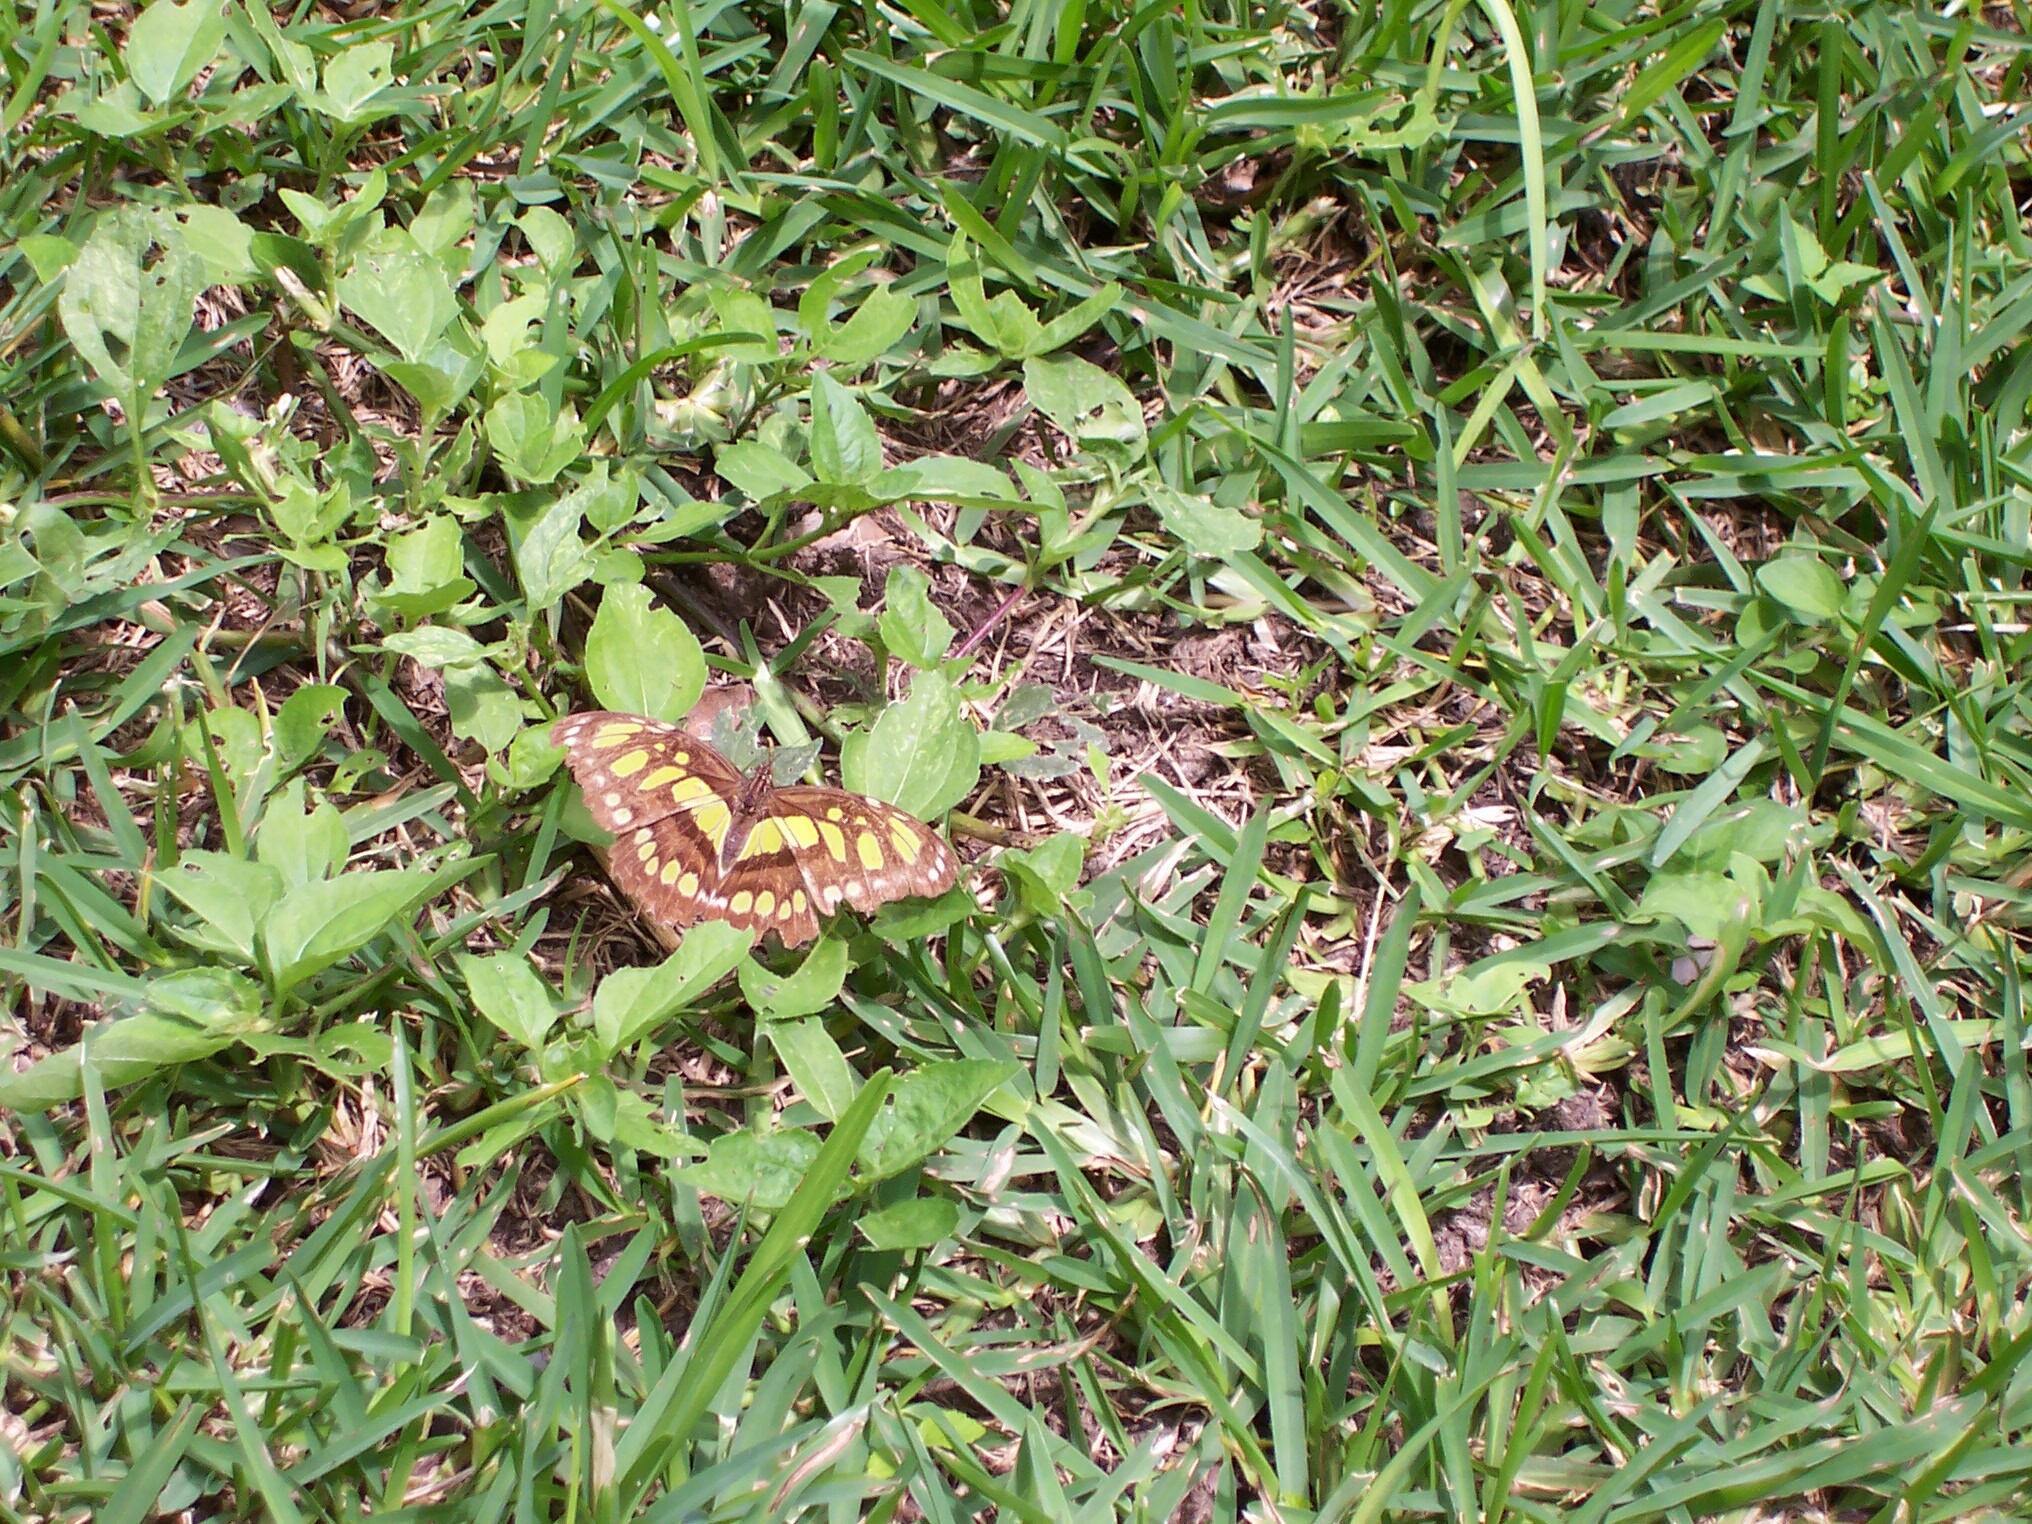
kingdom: Animalia
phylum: Arthropoda
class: Insecta
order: Lepidoptera
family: Nymphalidae
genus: Siproeta
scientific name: Siproeta stelenes
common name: Malachite
